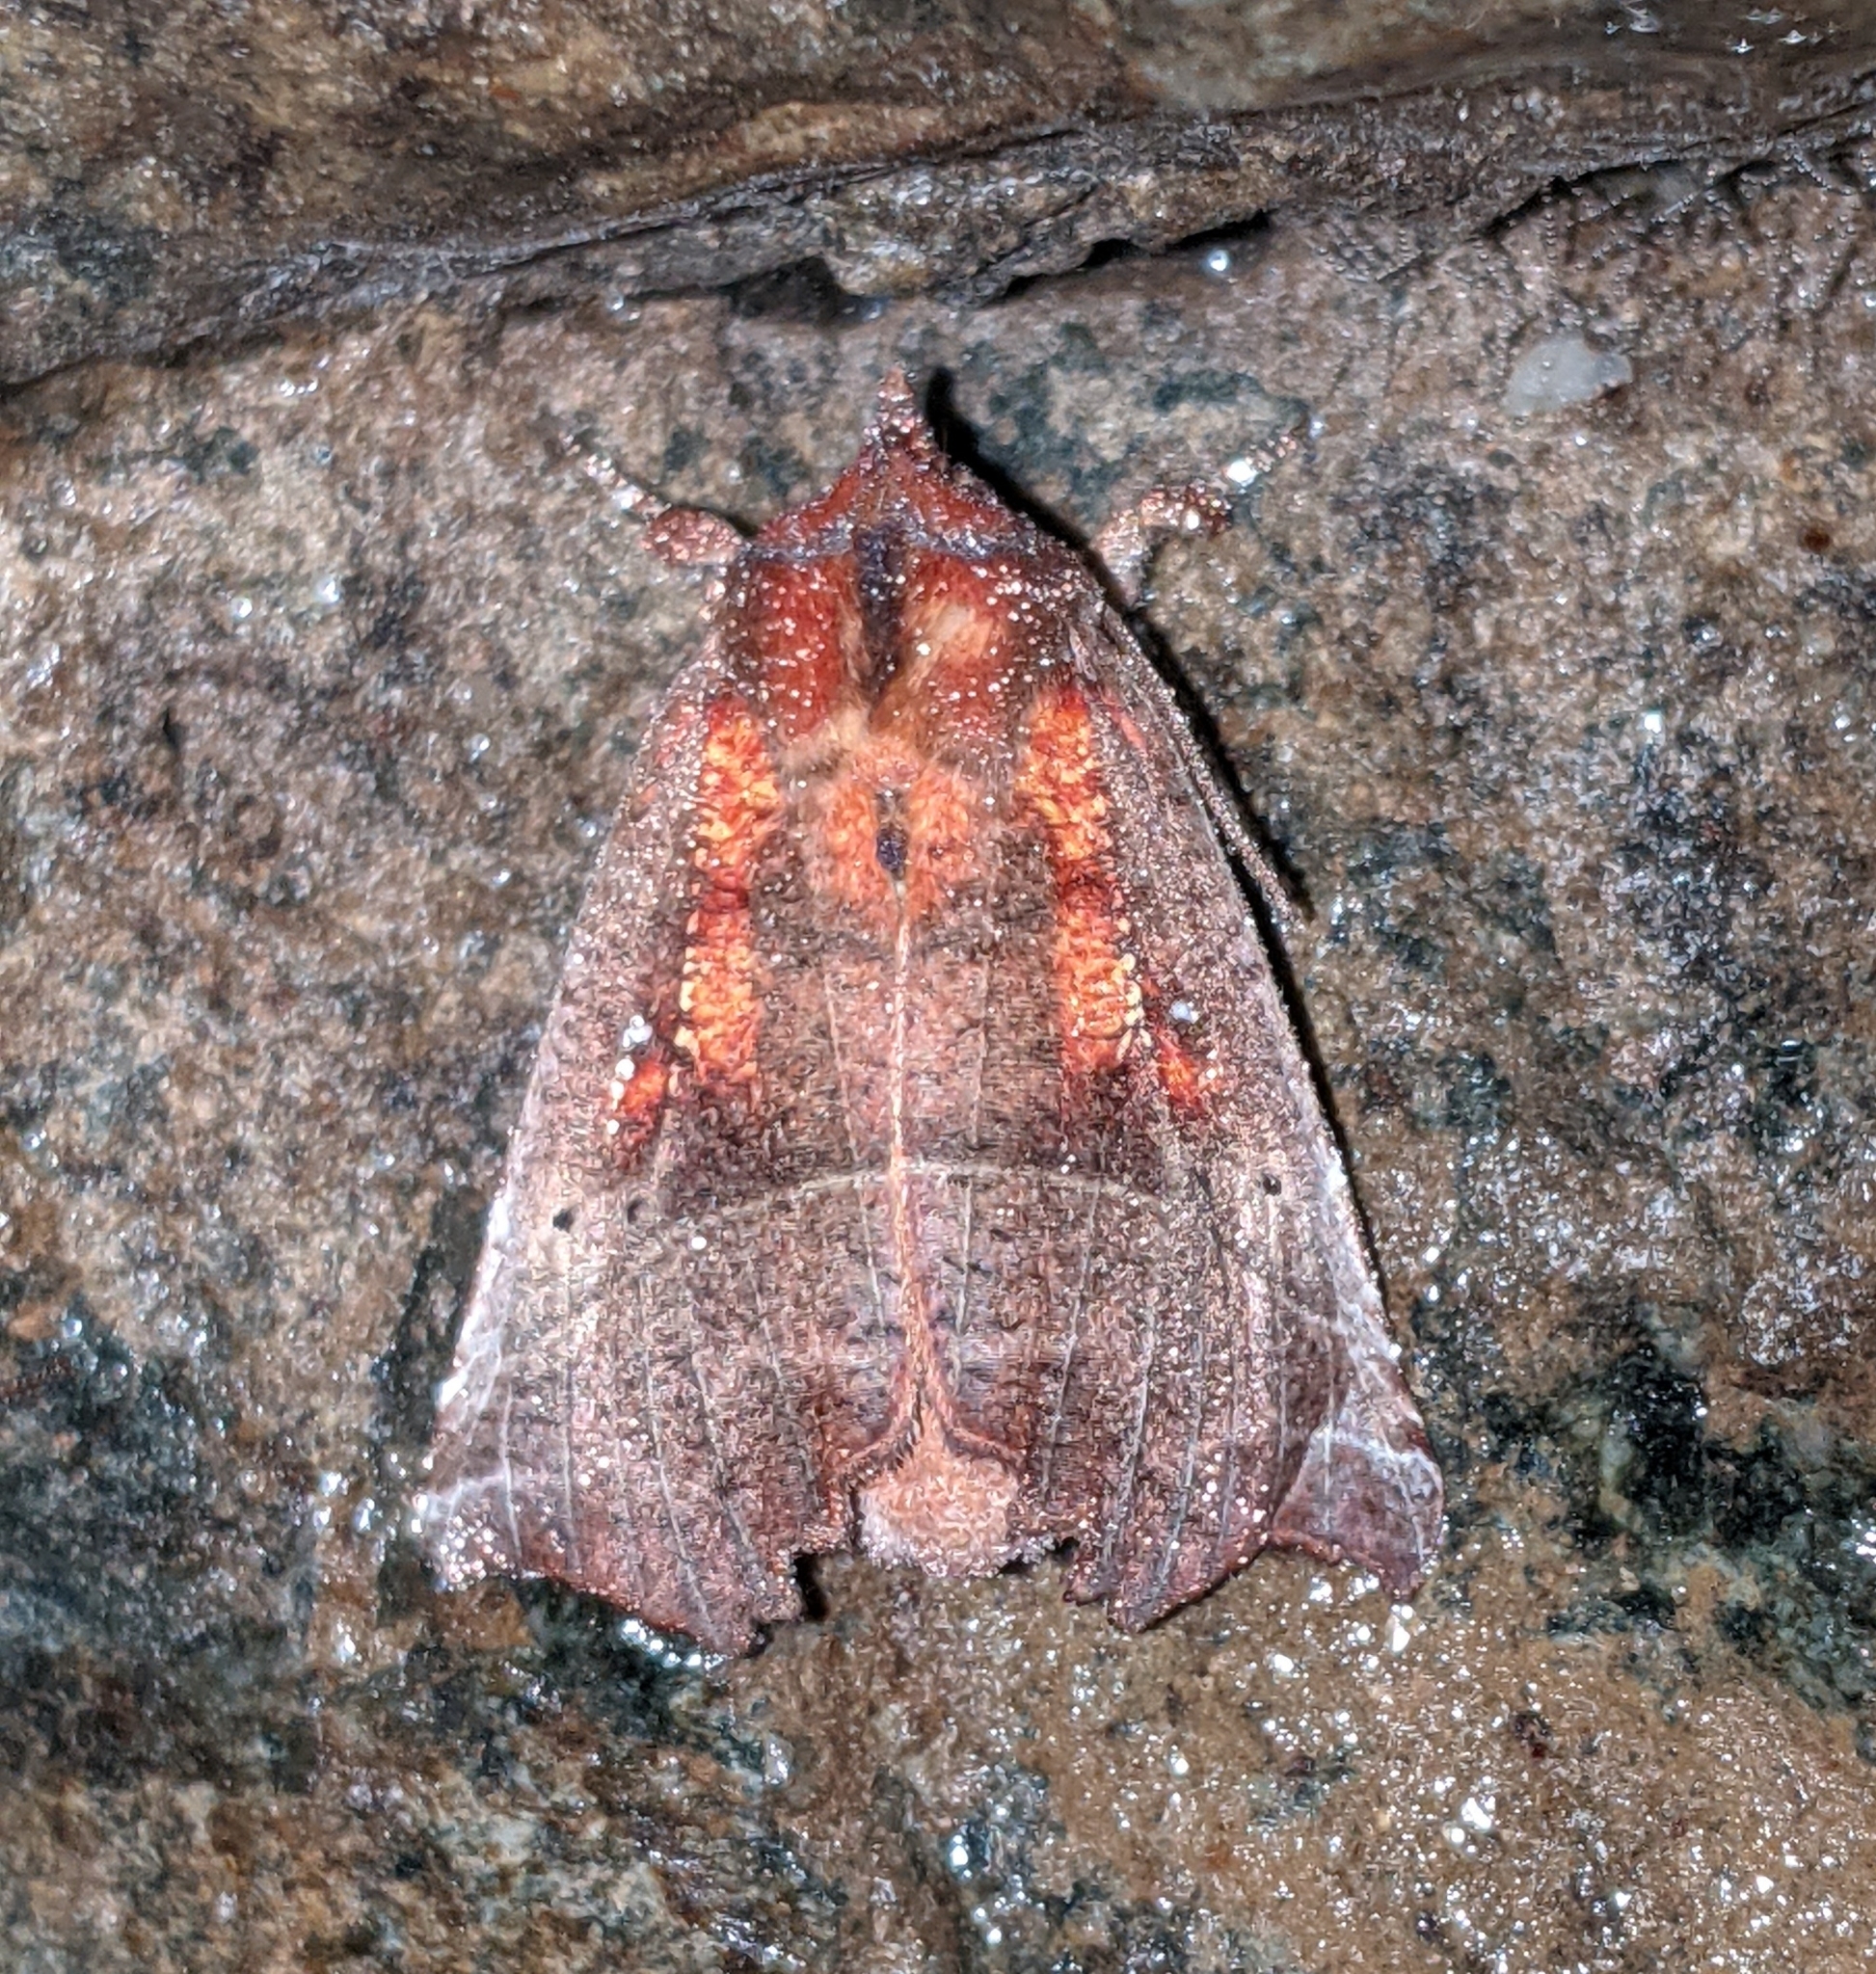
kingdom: Animalia
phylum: Arthropoda
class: Insecta
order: Lepidoptera
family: Erebidae
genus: Scoliopteryx
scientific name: Scoliopteryx libatrix
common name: Herald
